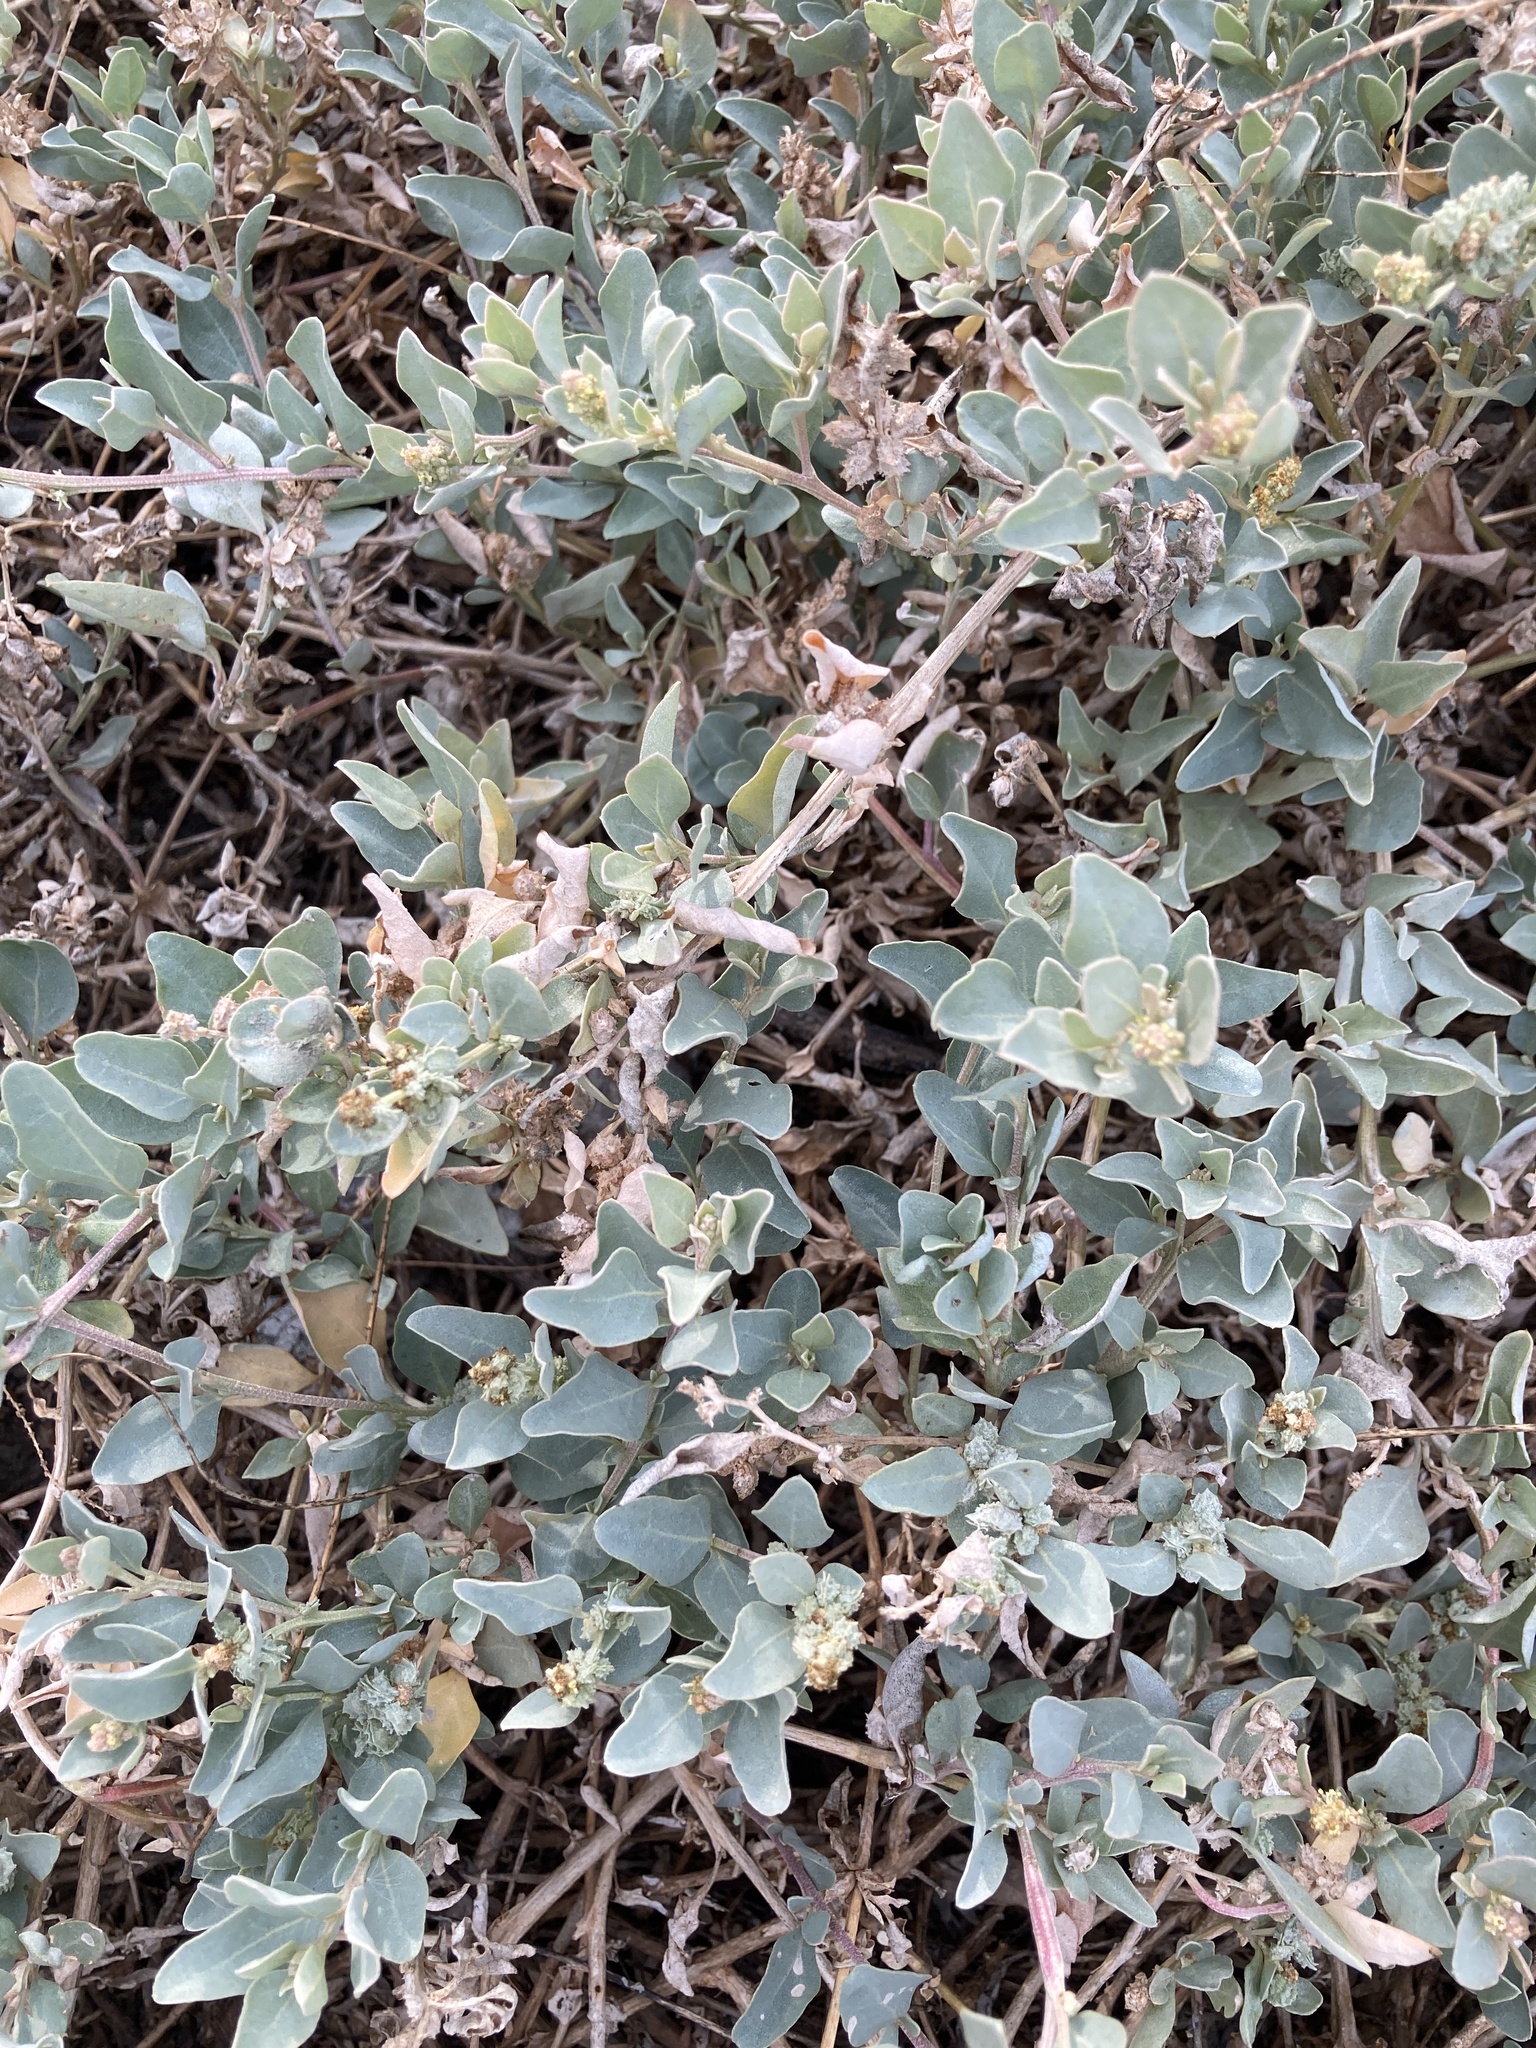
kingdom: Plantae
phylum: Tracheophyta
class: Magnoliopsida
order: Caryophyllales
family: Amaranthaceae
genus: Atriplex
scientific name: Atriplex maximowicziana
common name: Maximowicz's saltbush
